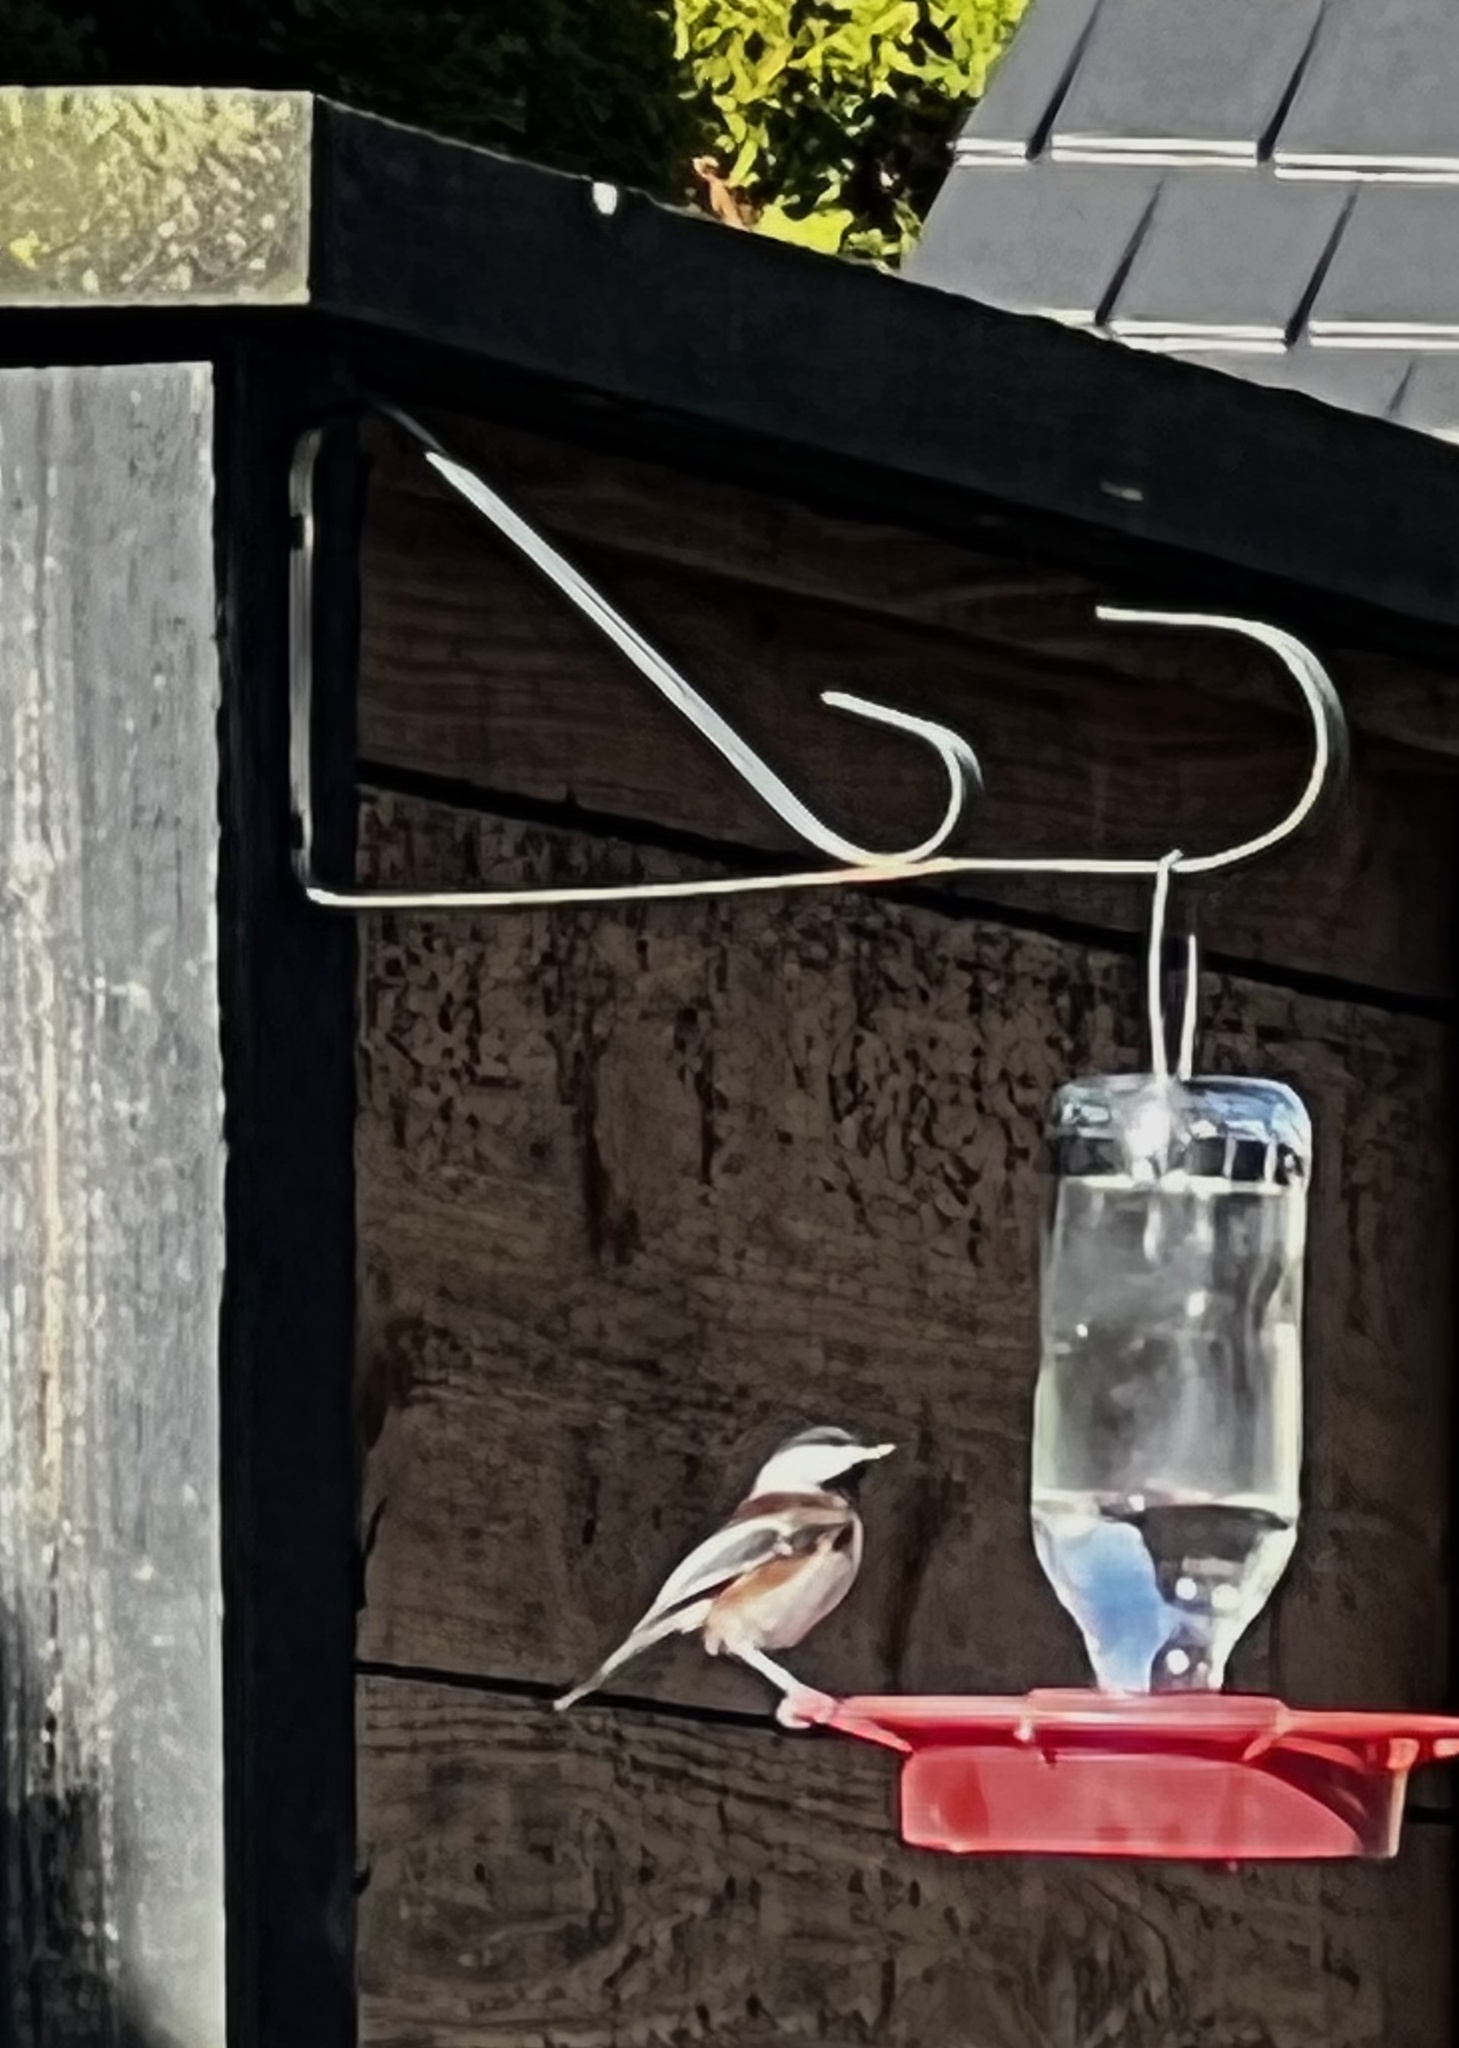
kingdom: Animalia
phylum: Chordata
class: Aves
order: Passeriformes
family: Paridae
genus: Poecile
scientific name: Poecile rufescens
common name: Chestnut-backed chickadee
